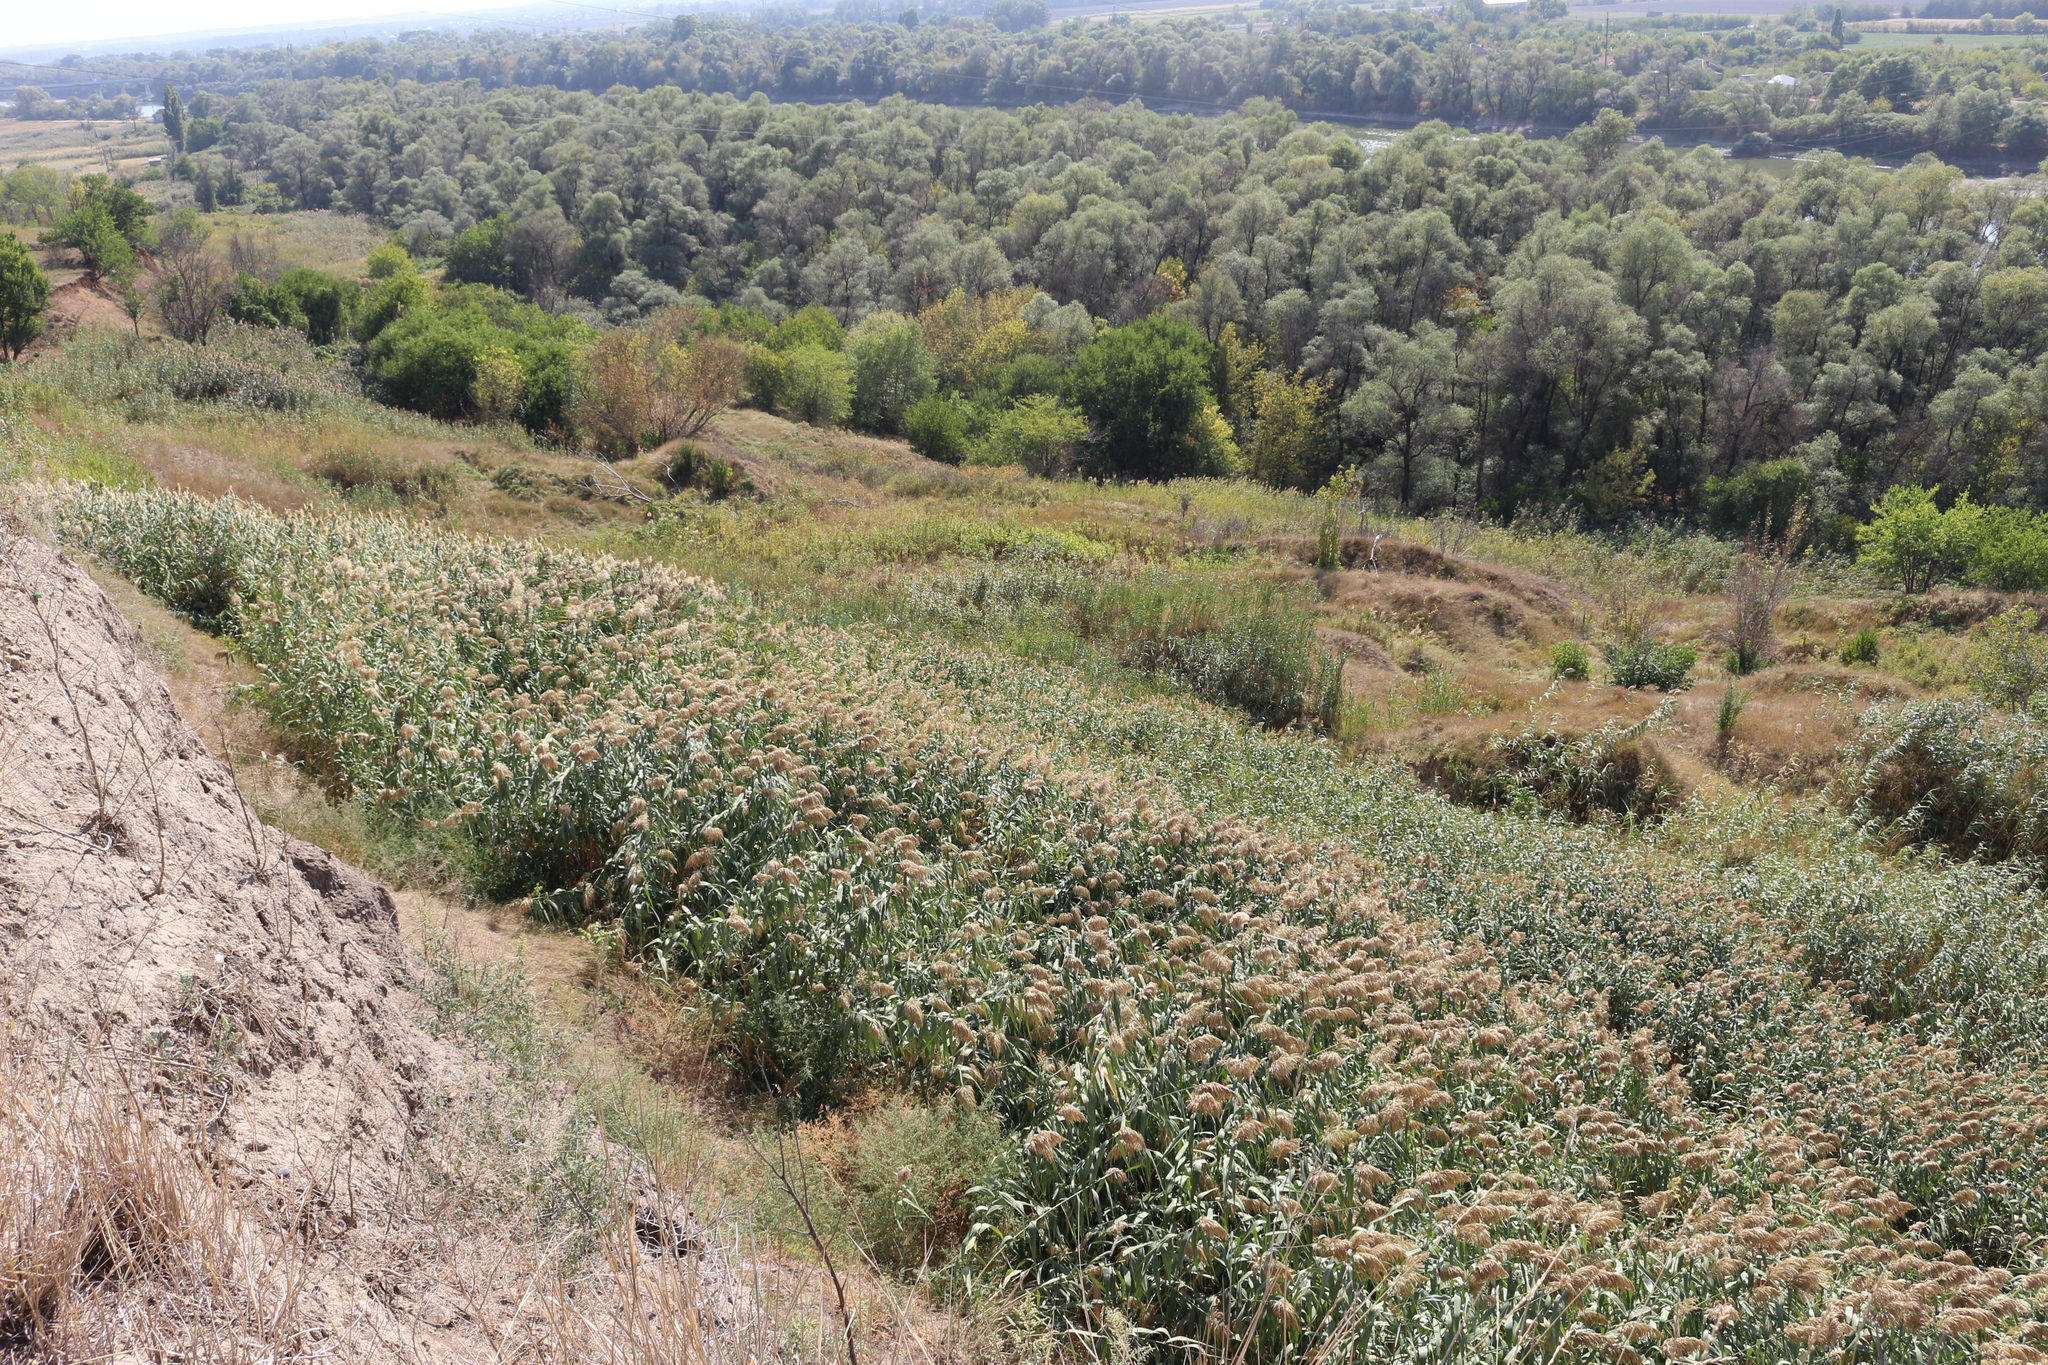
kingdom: Plantae
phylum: Tracheophyta
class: Liliopsida
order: Poales
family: Poaceae
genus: Phragmites
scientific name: Phragmites australis
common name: Common reed
